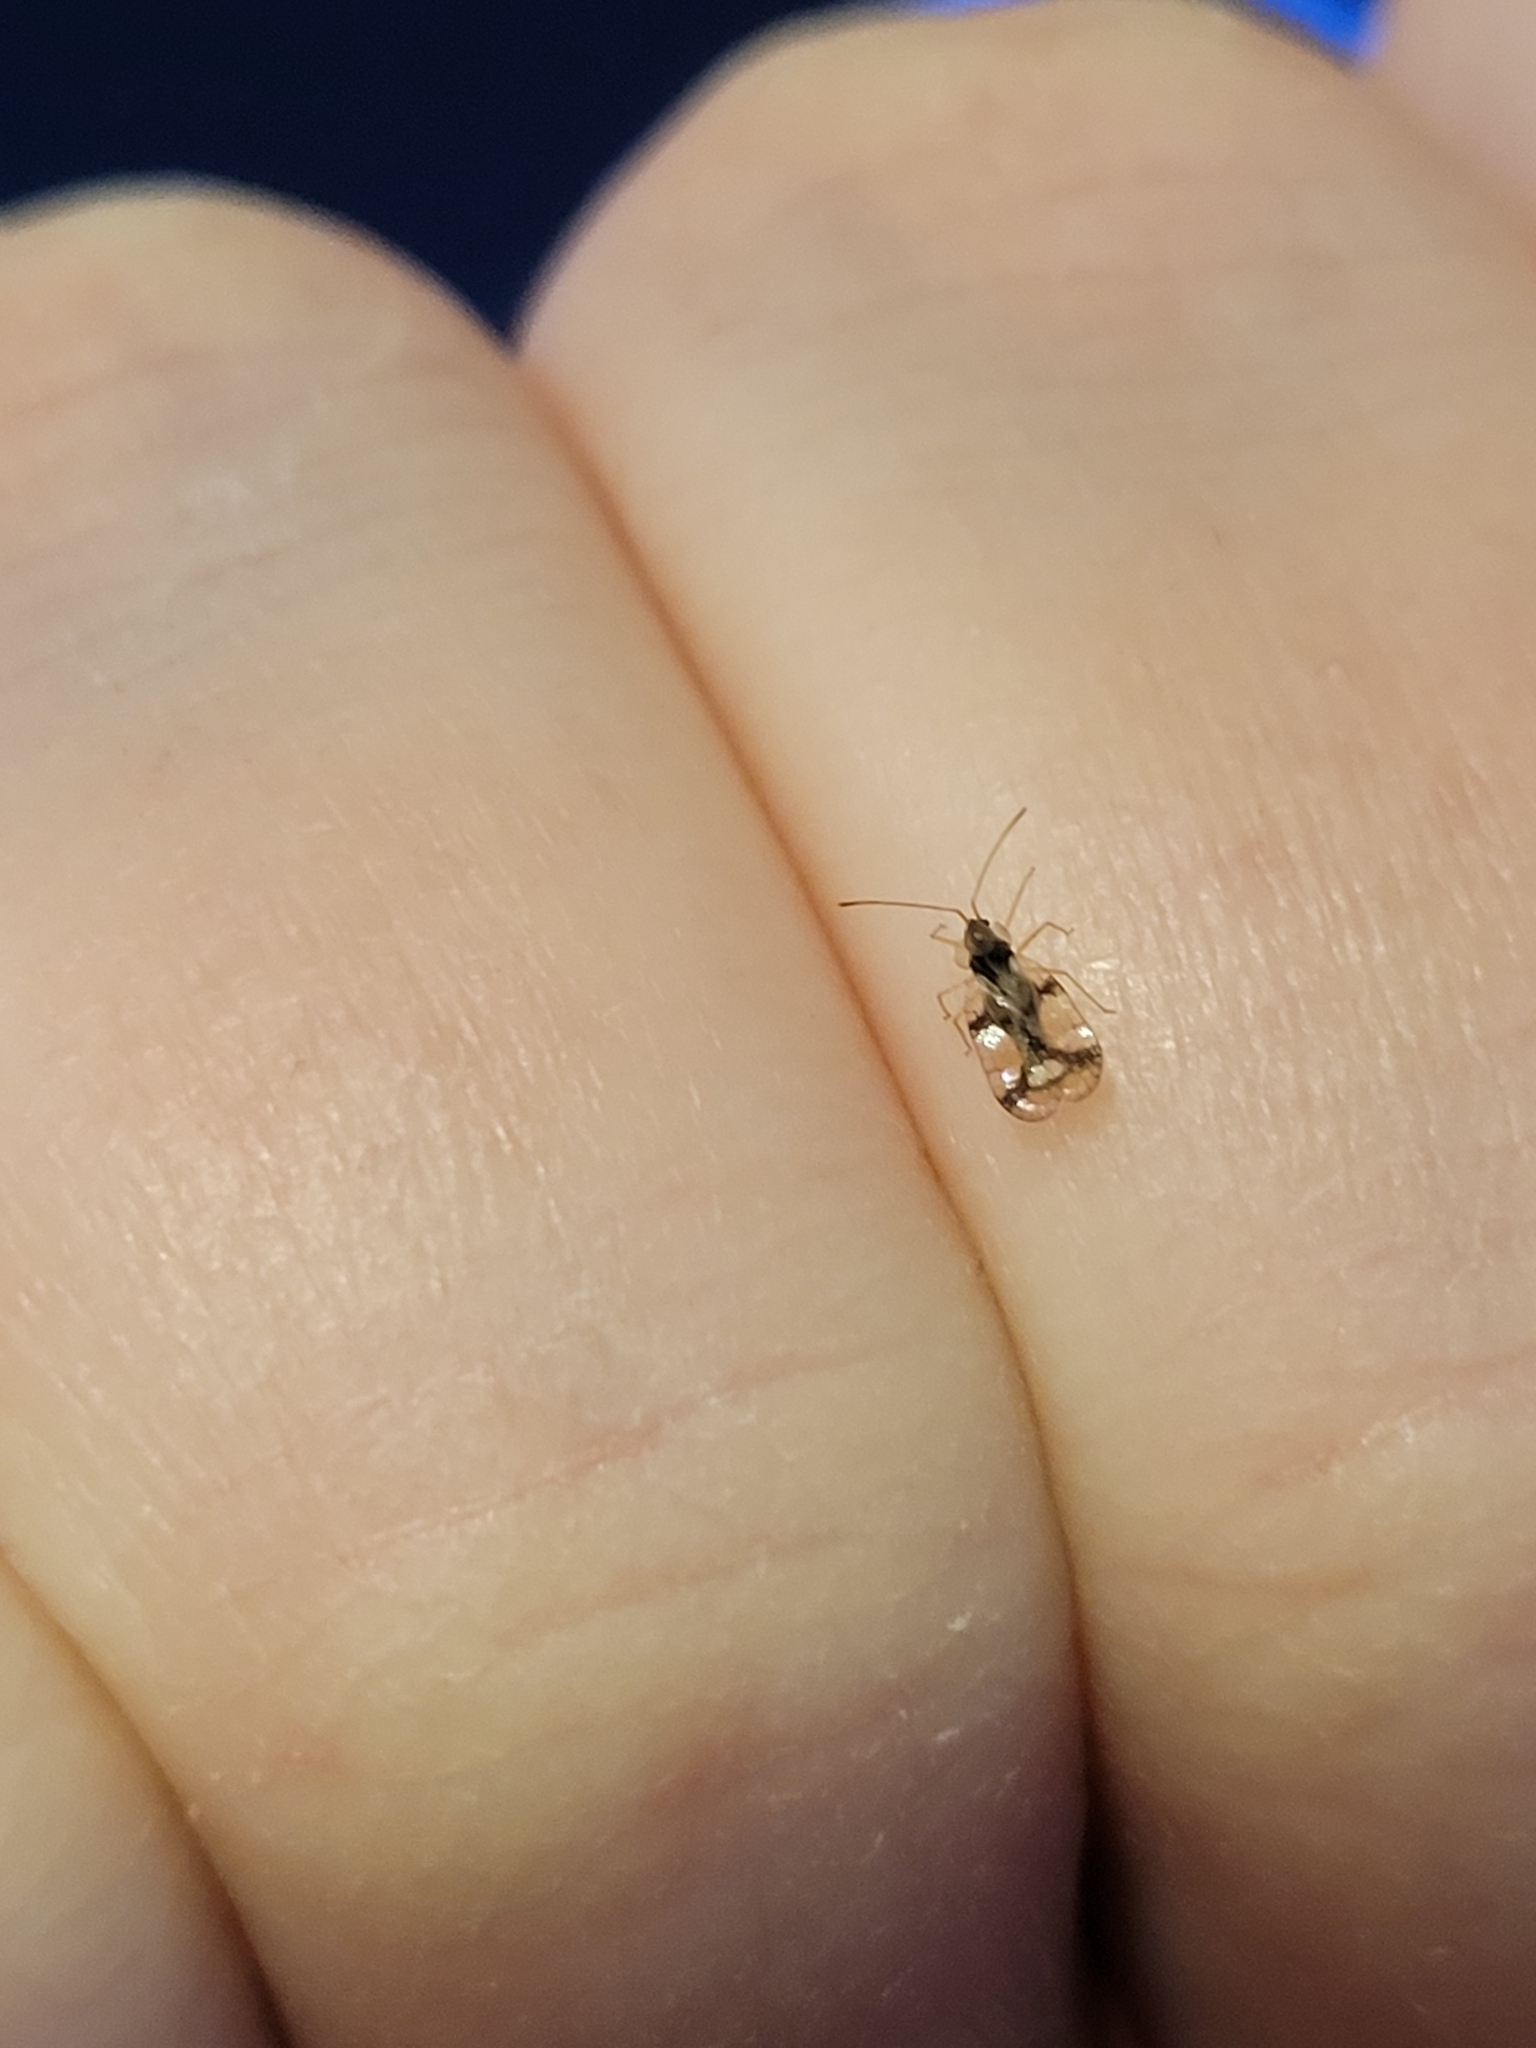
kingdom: Animalia
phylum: Arthropoda
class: Insecta
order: Hemiptera
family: Tingidae
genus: Stephanitis
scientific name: Stephanitis pyrioides
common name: Azalea lace bug
